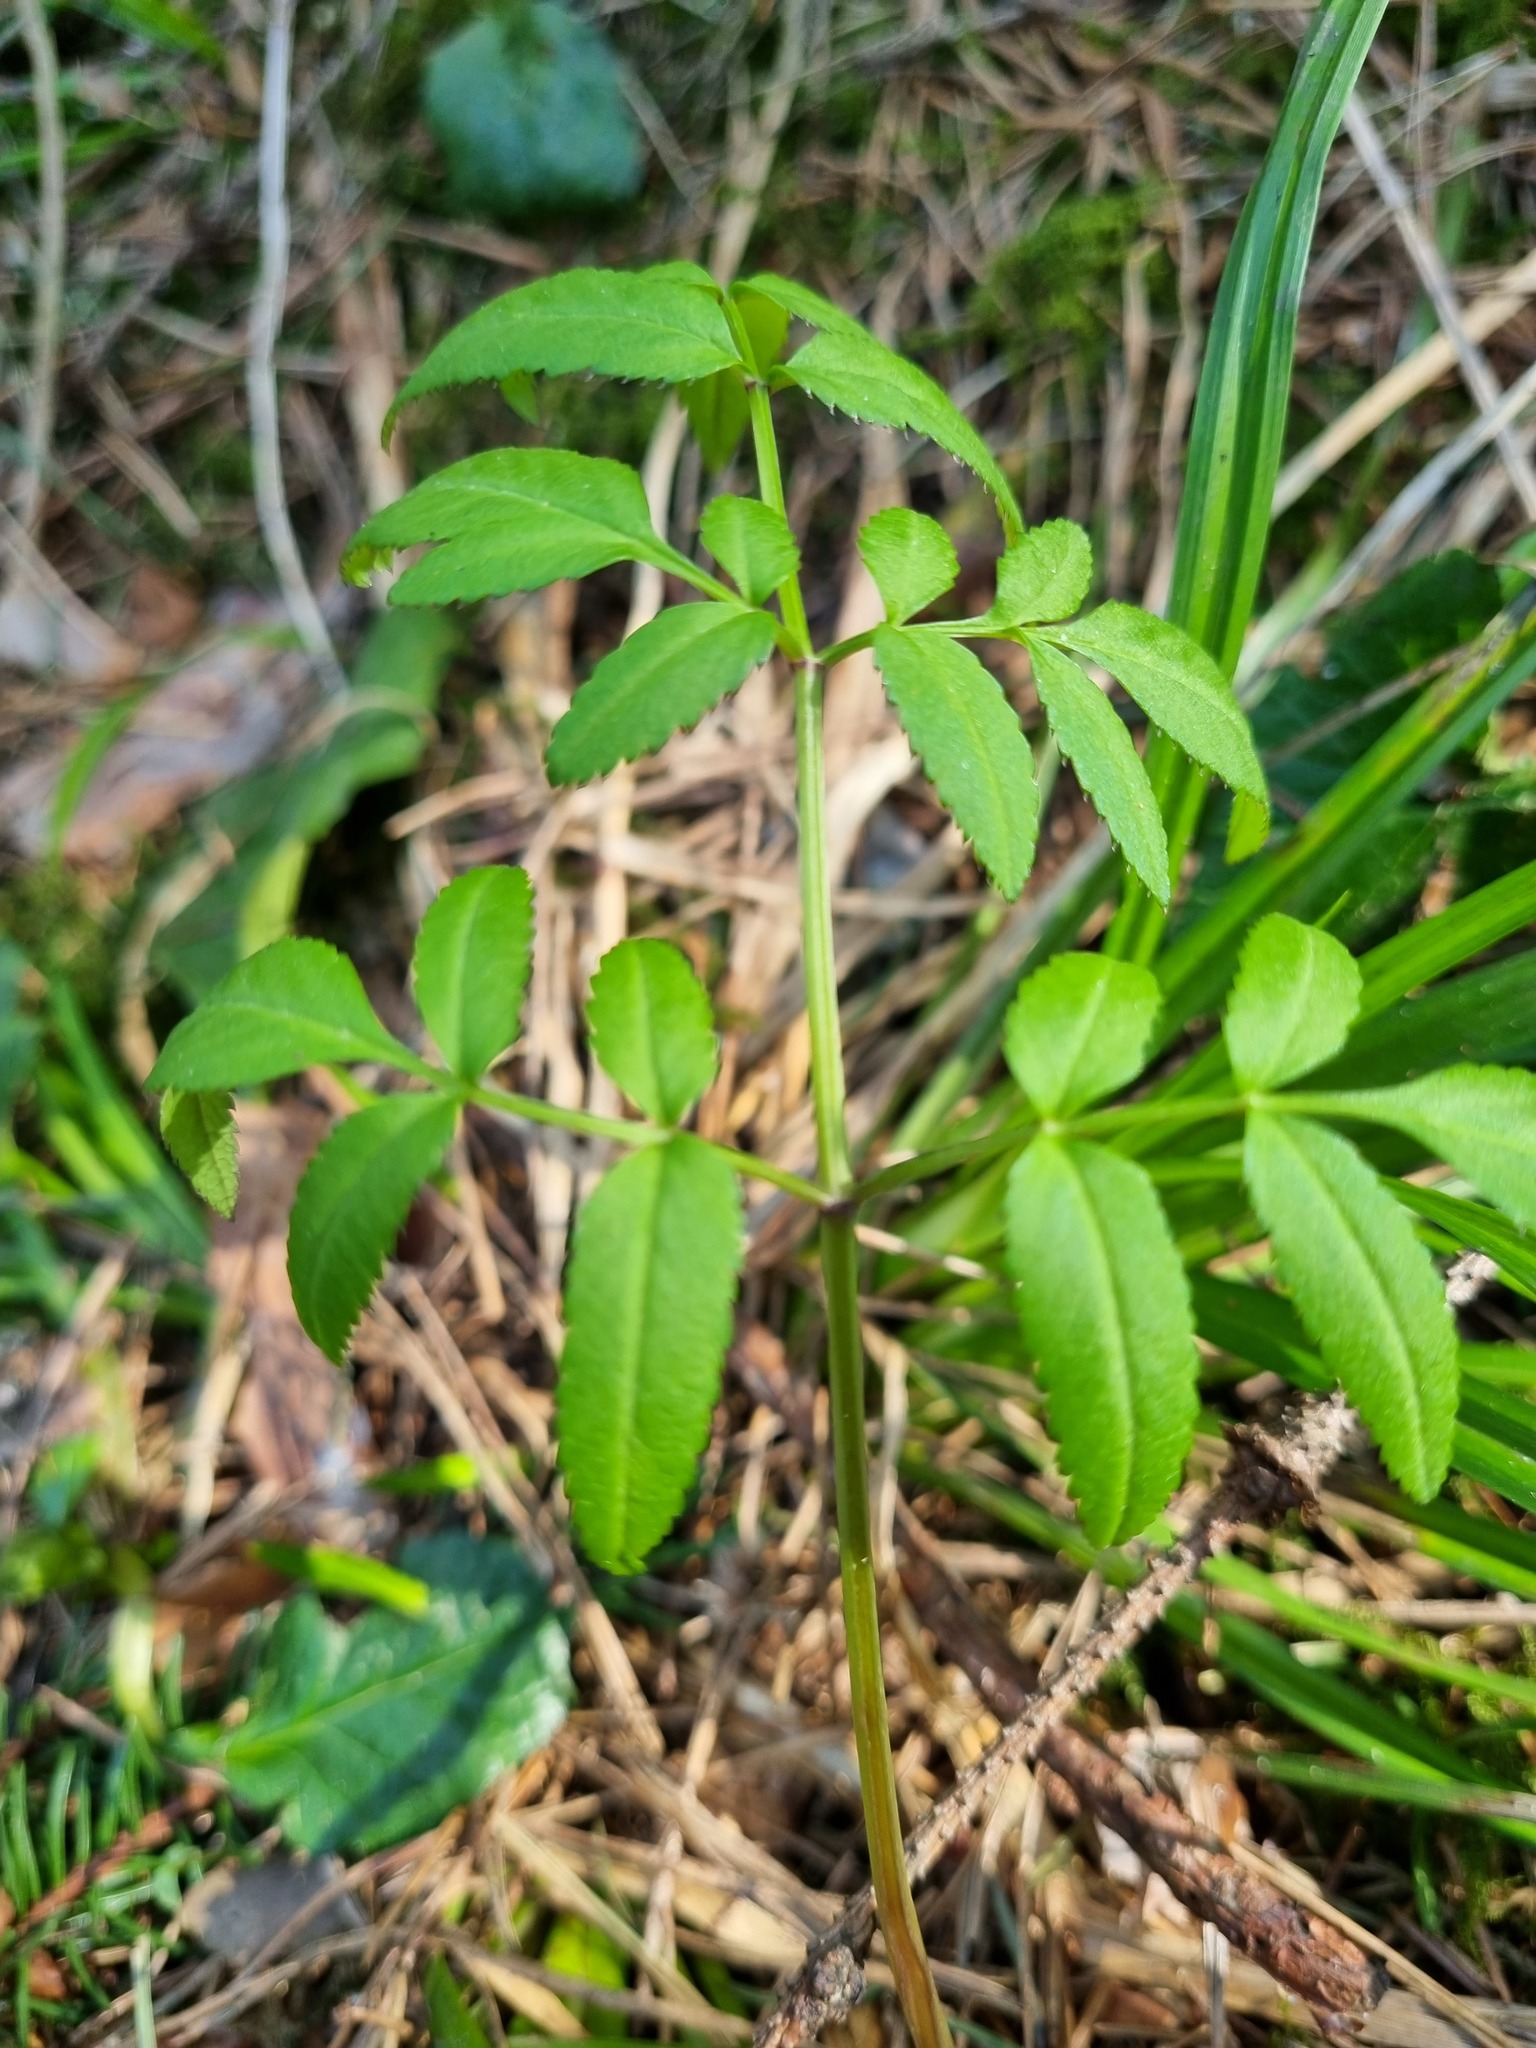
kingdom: Plantae
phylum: Tracheophyta
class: Magnoliopsida
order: Apiales
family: Apiaceae
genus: Angelica
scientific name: Angelica sylvestris
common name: Wild angelica
